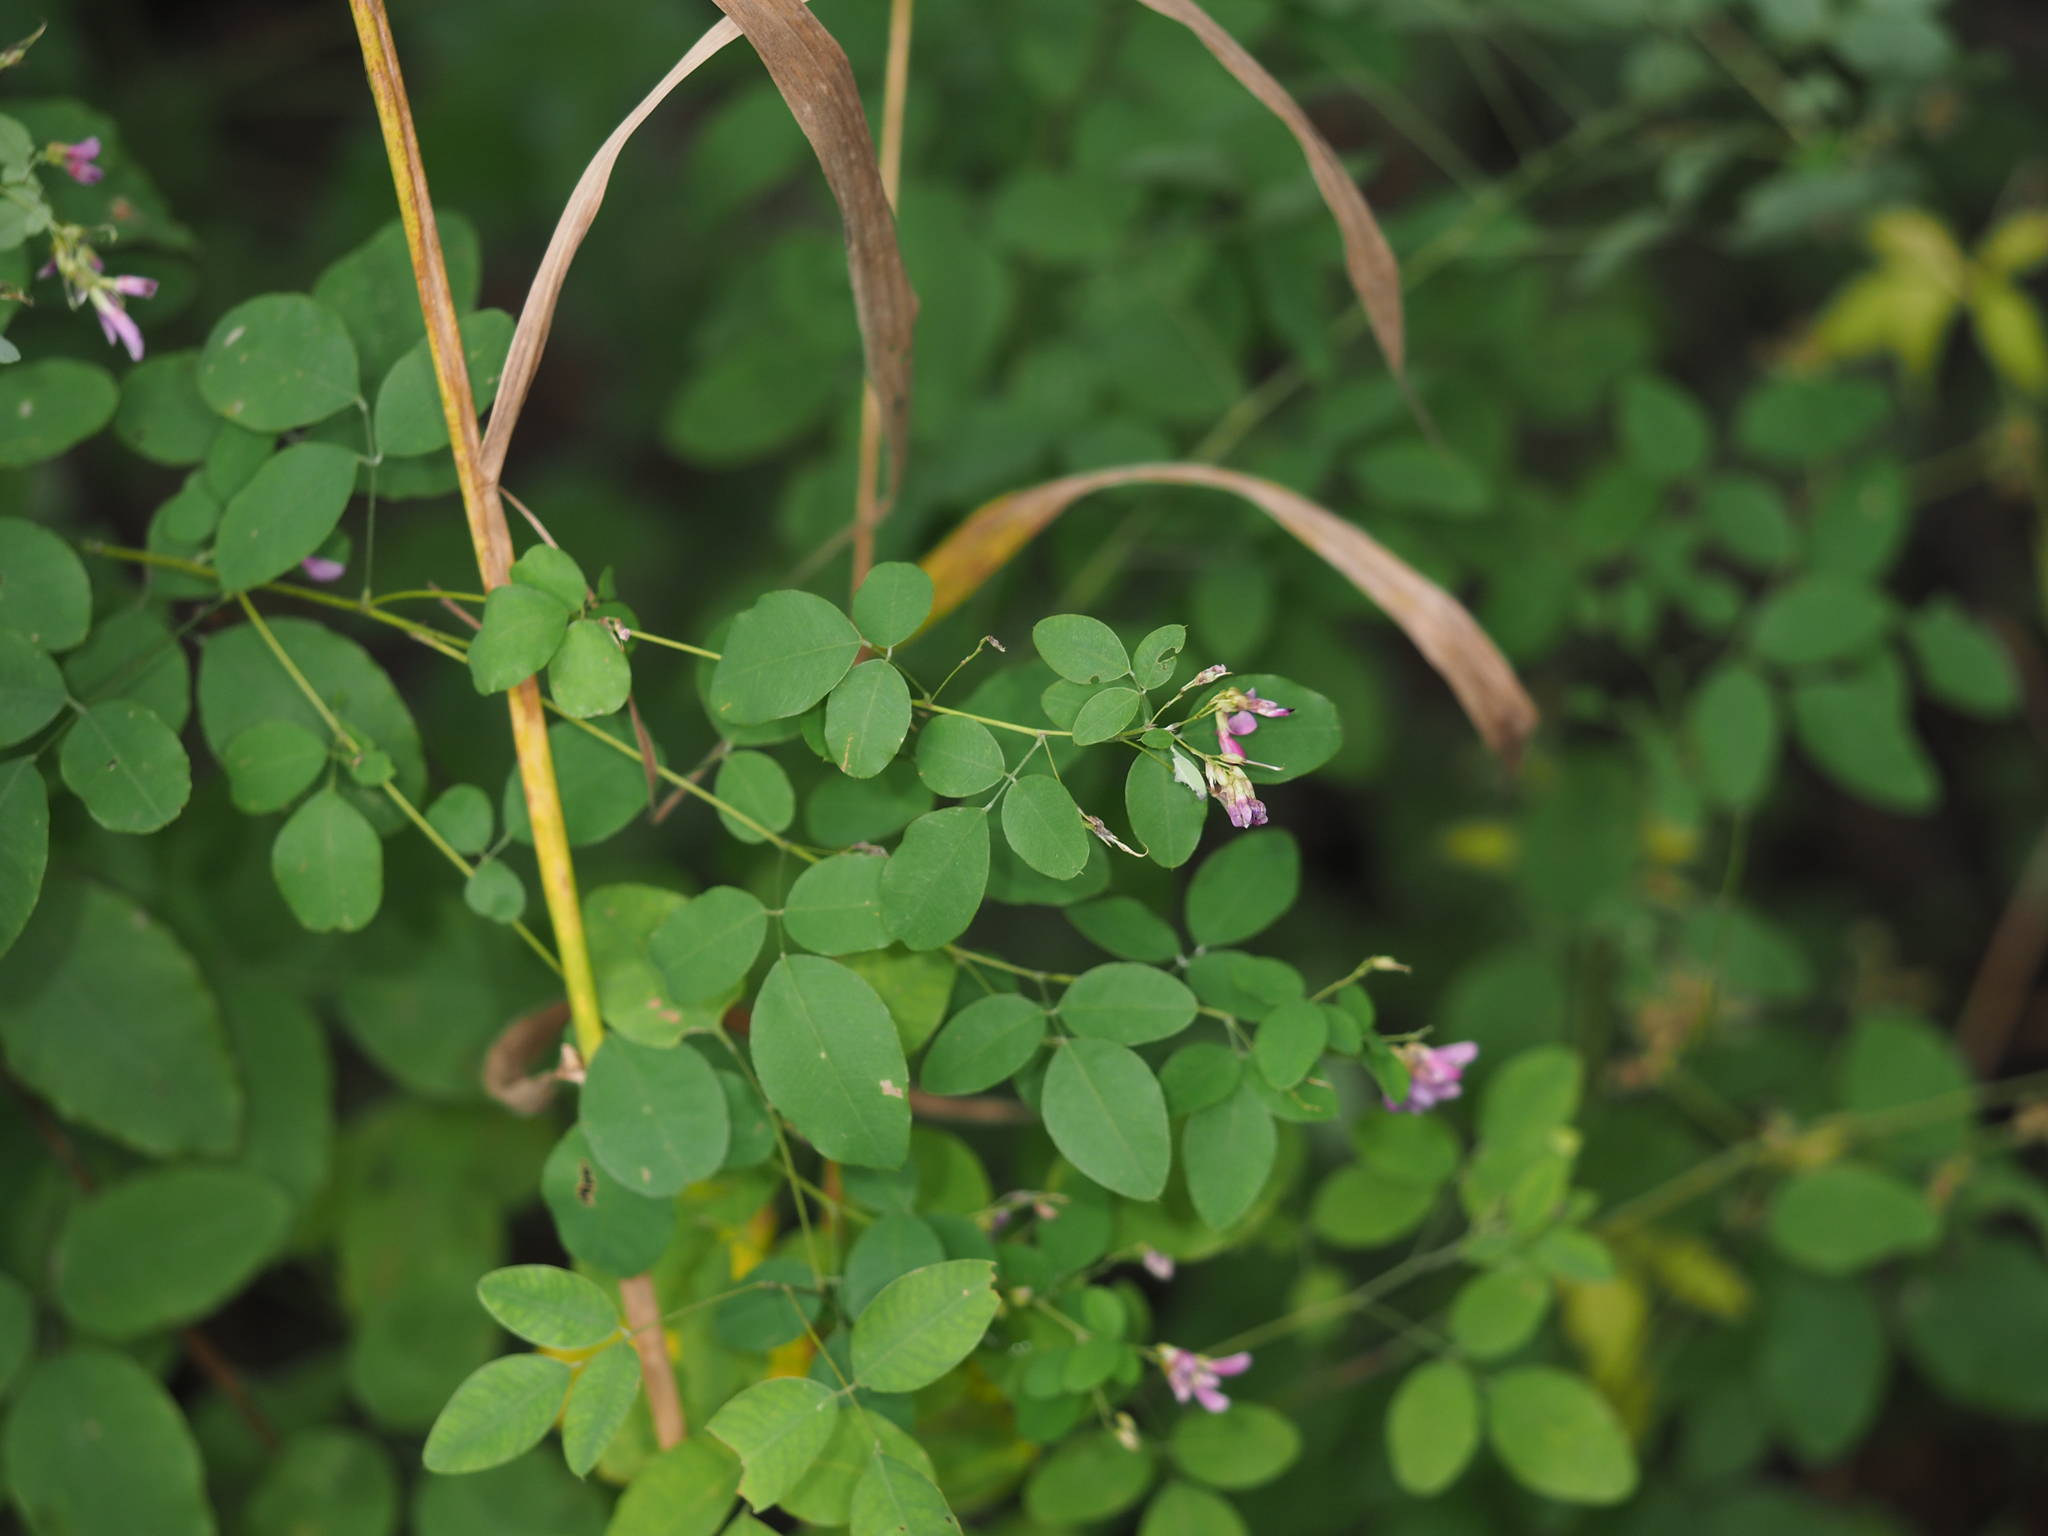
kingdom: Plantae
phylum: Tracheophyta
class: Magnoliopsida
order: Fabales
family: Fabaceae
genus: Lespedeza
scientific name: Lespedeza bicolor
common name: Shrub lespedeza
